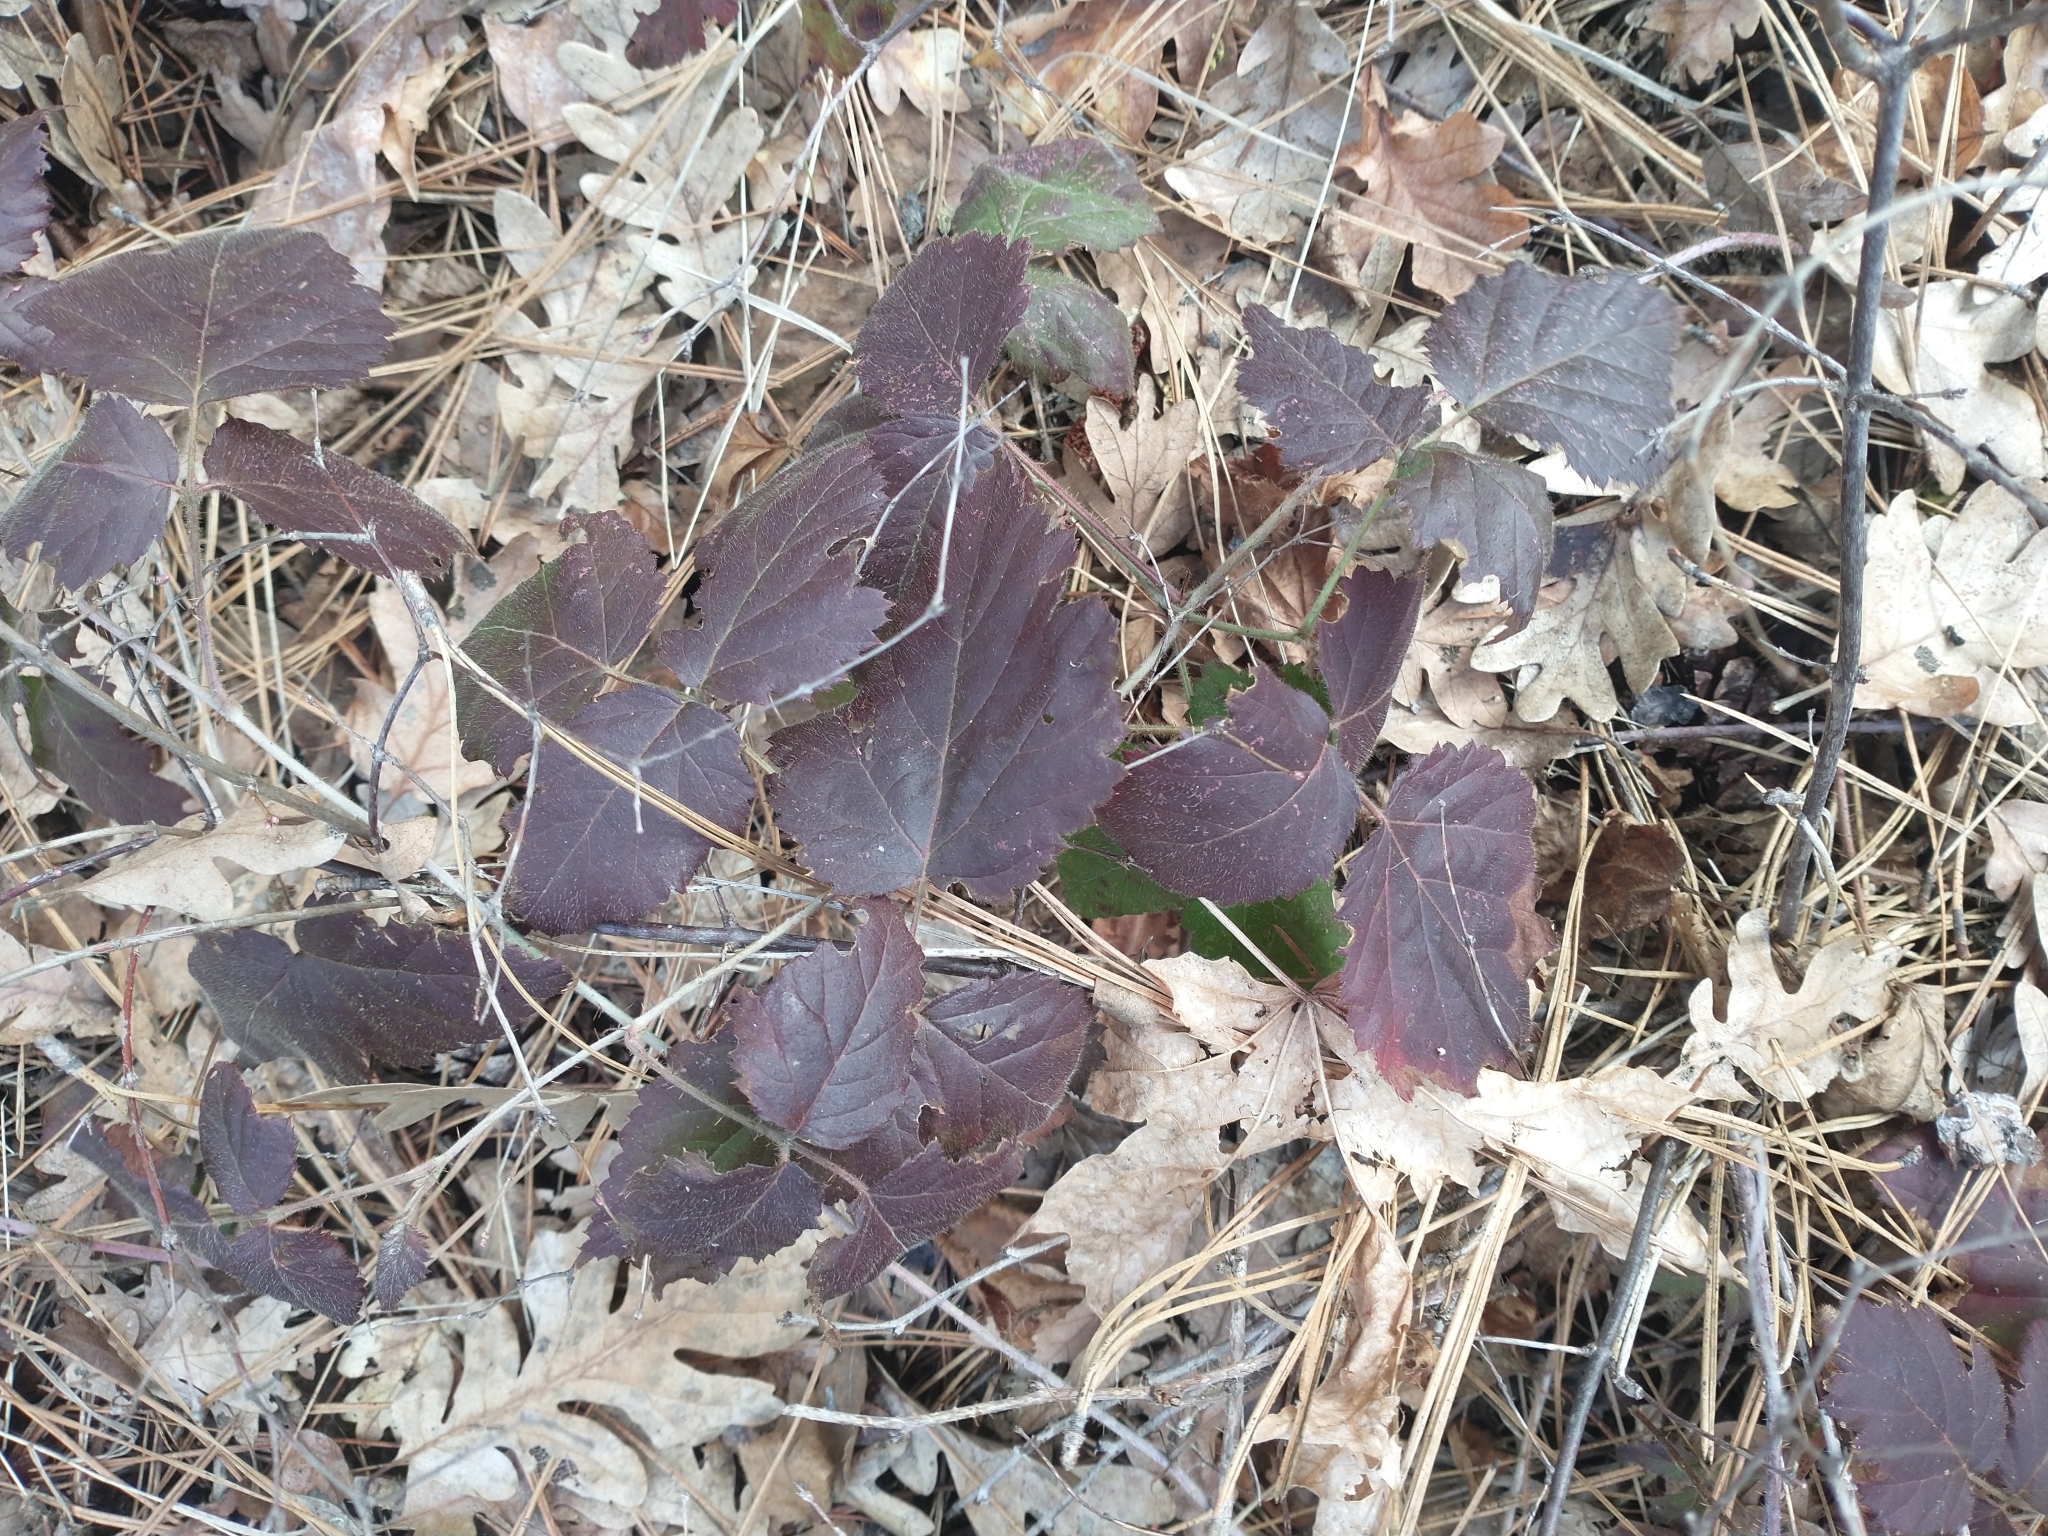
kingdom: Plantae
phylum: Tracheophyta
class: Magnoliopsida
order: Rosales
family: Rosaceae
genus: Rubus
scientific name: Rubus ursinus
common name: Pacific blackberry
